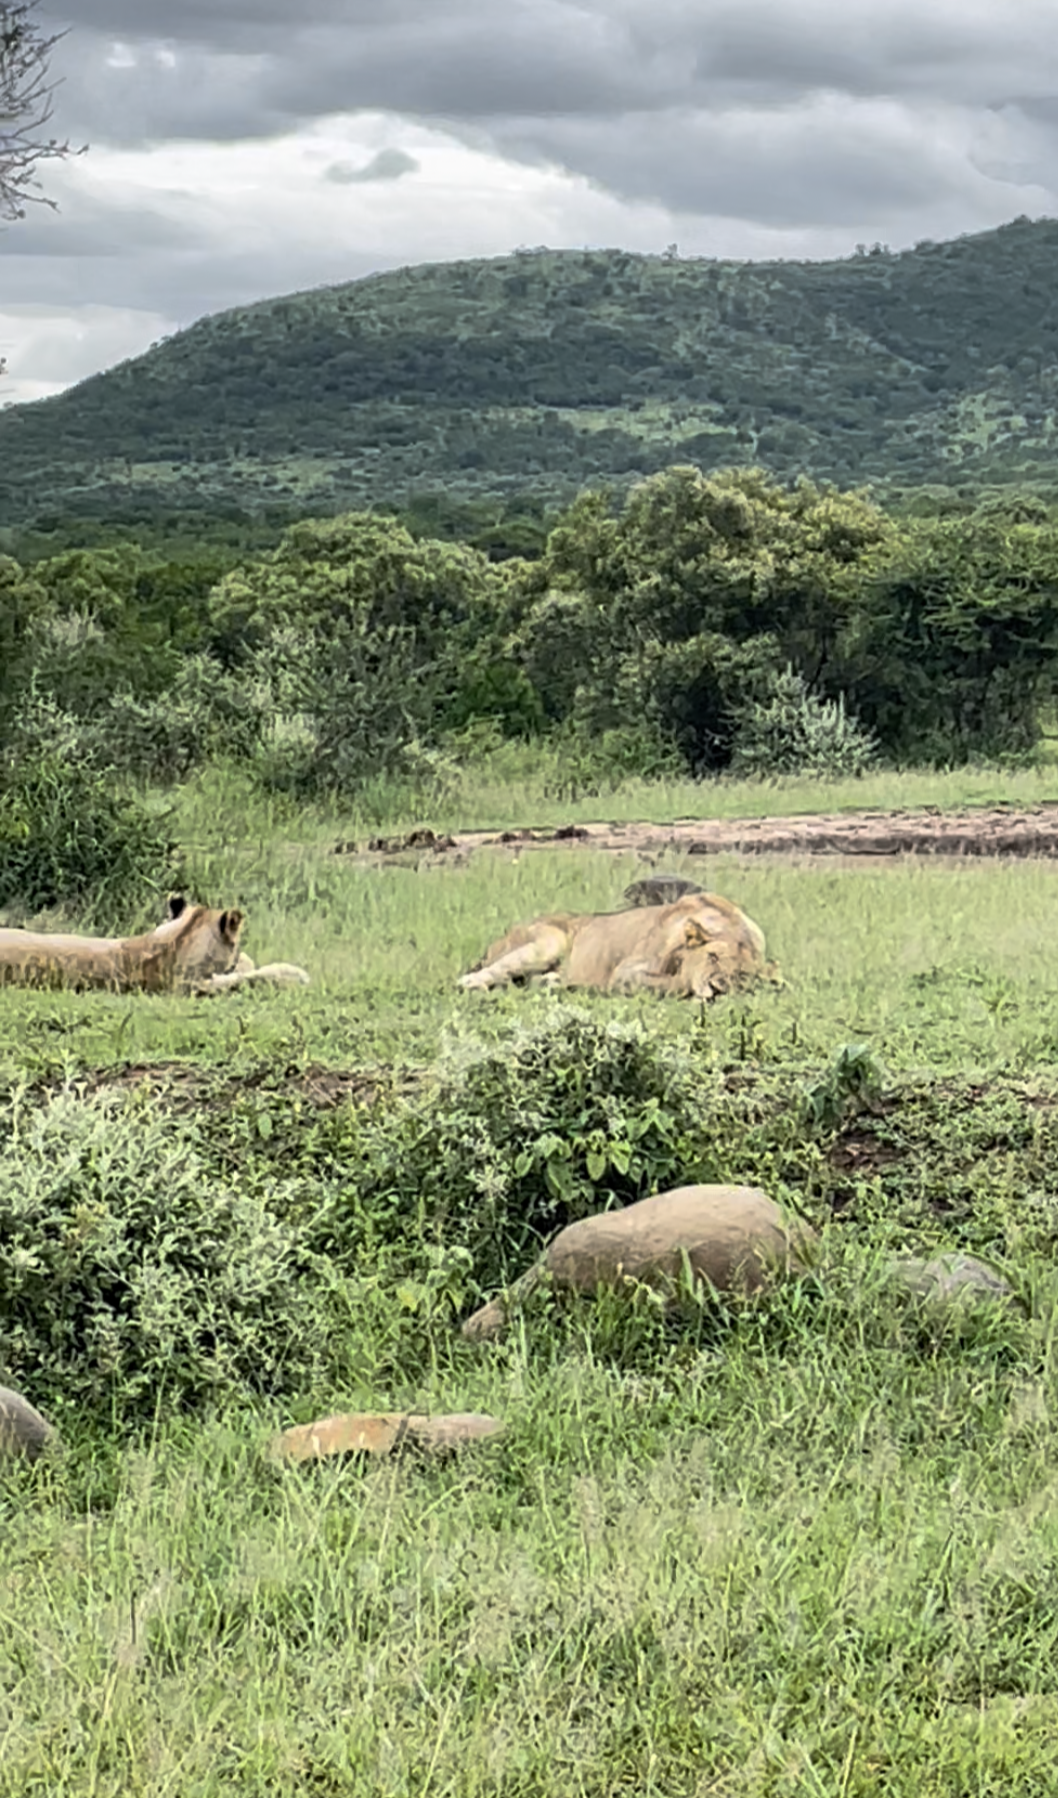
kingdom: Animalia
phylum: Chordata
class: Mammalia
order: Carnivora
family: Felidae
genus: Panthera
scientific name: Panthera leo
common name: Lion
